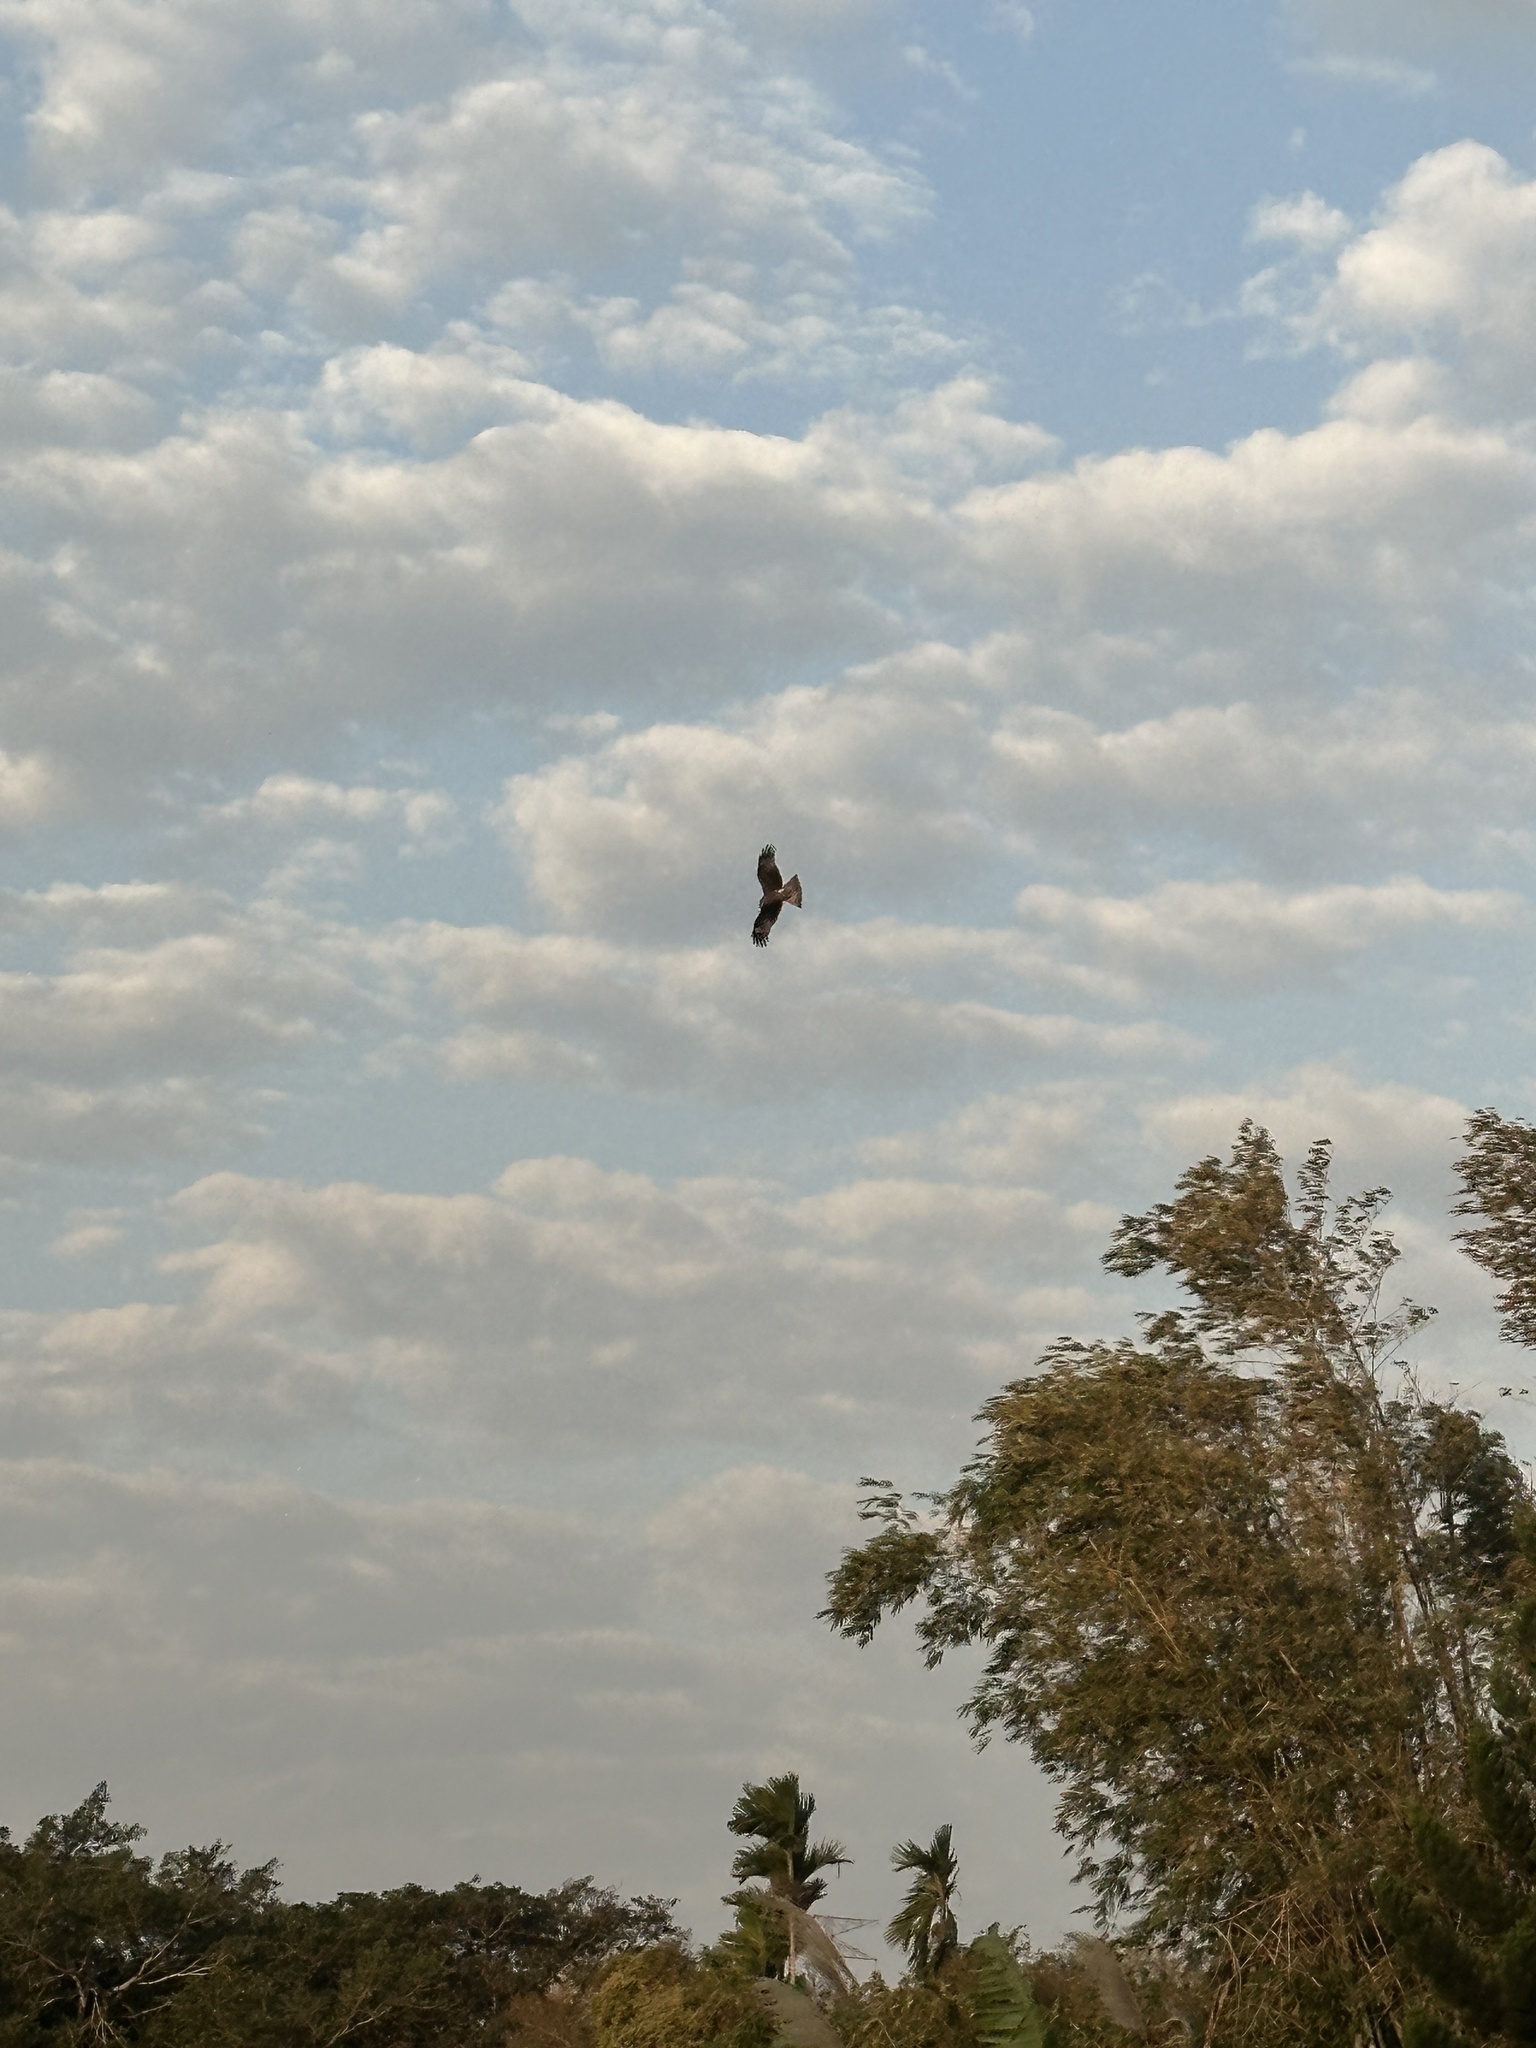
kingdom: Animalia
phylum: Chordata
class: Aves
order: Accipitriformes
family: Accipitridae
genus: Milvus
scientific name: Milvus migrans
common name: Black kite
